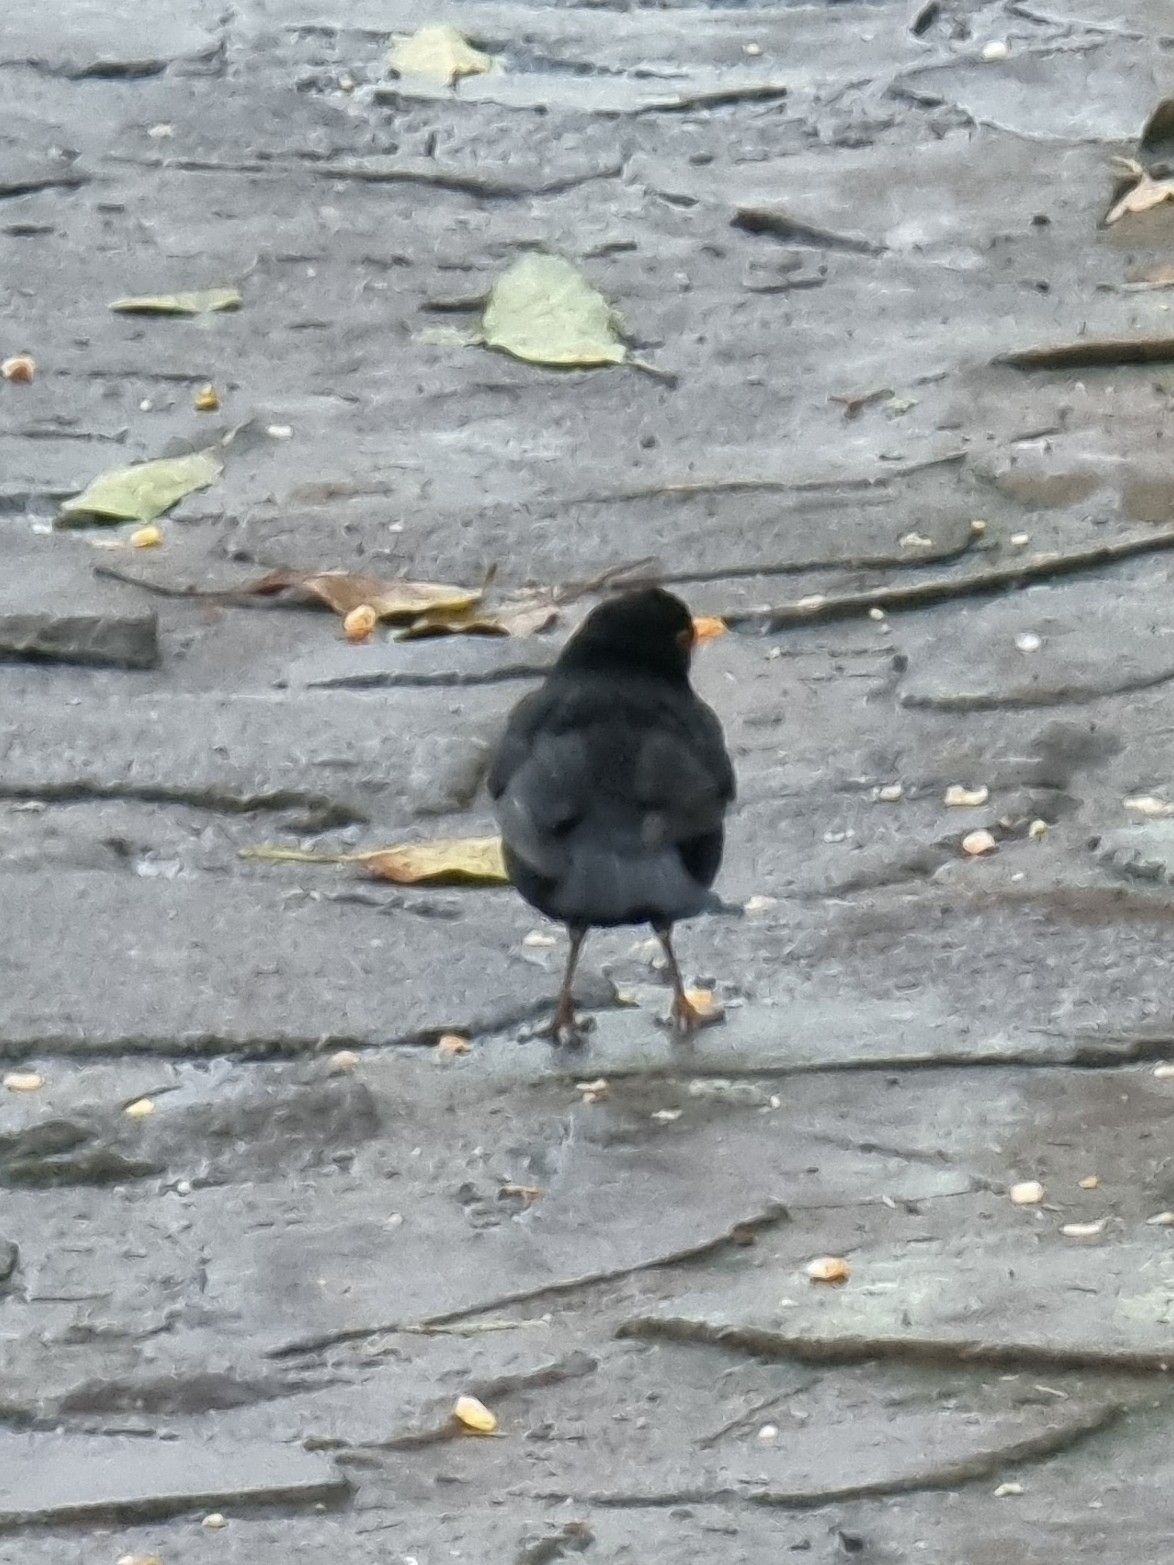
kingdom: Animalia
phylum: Chordata
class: Aves
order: Passeriformes
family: Turdidae
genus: Turdus
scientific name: Turdus merula
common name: Common blackbird
